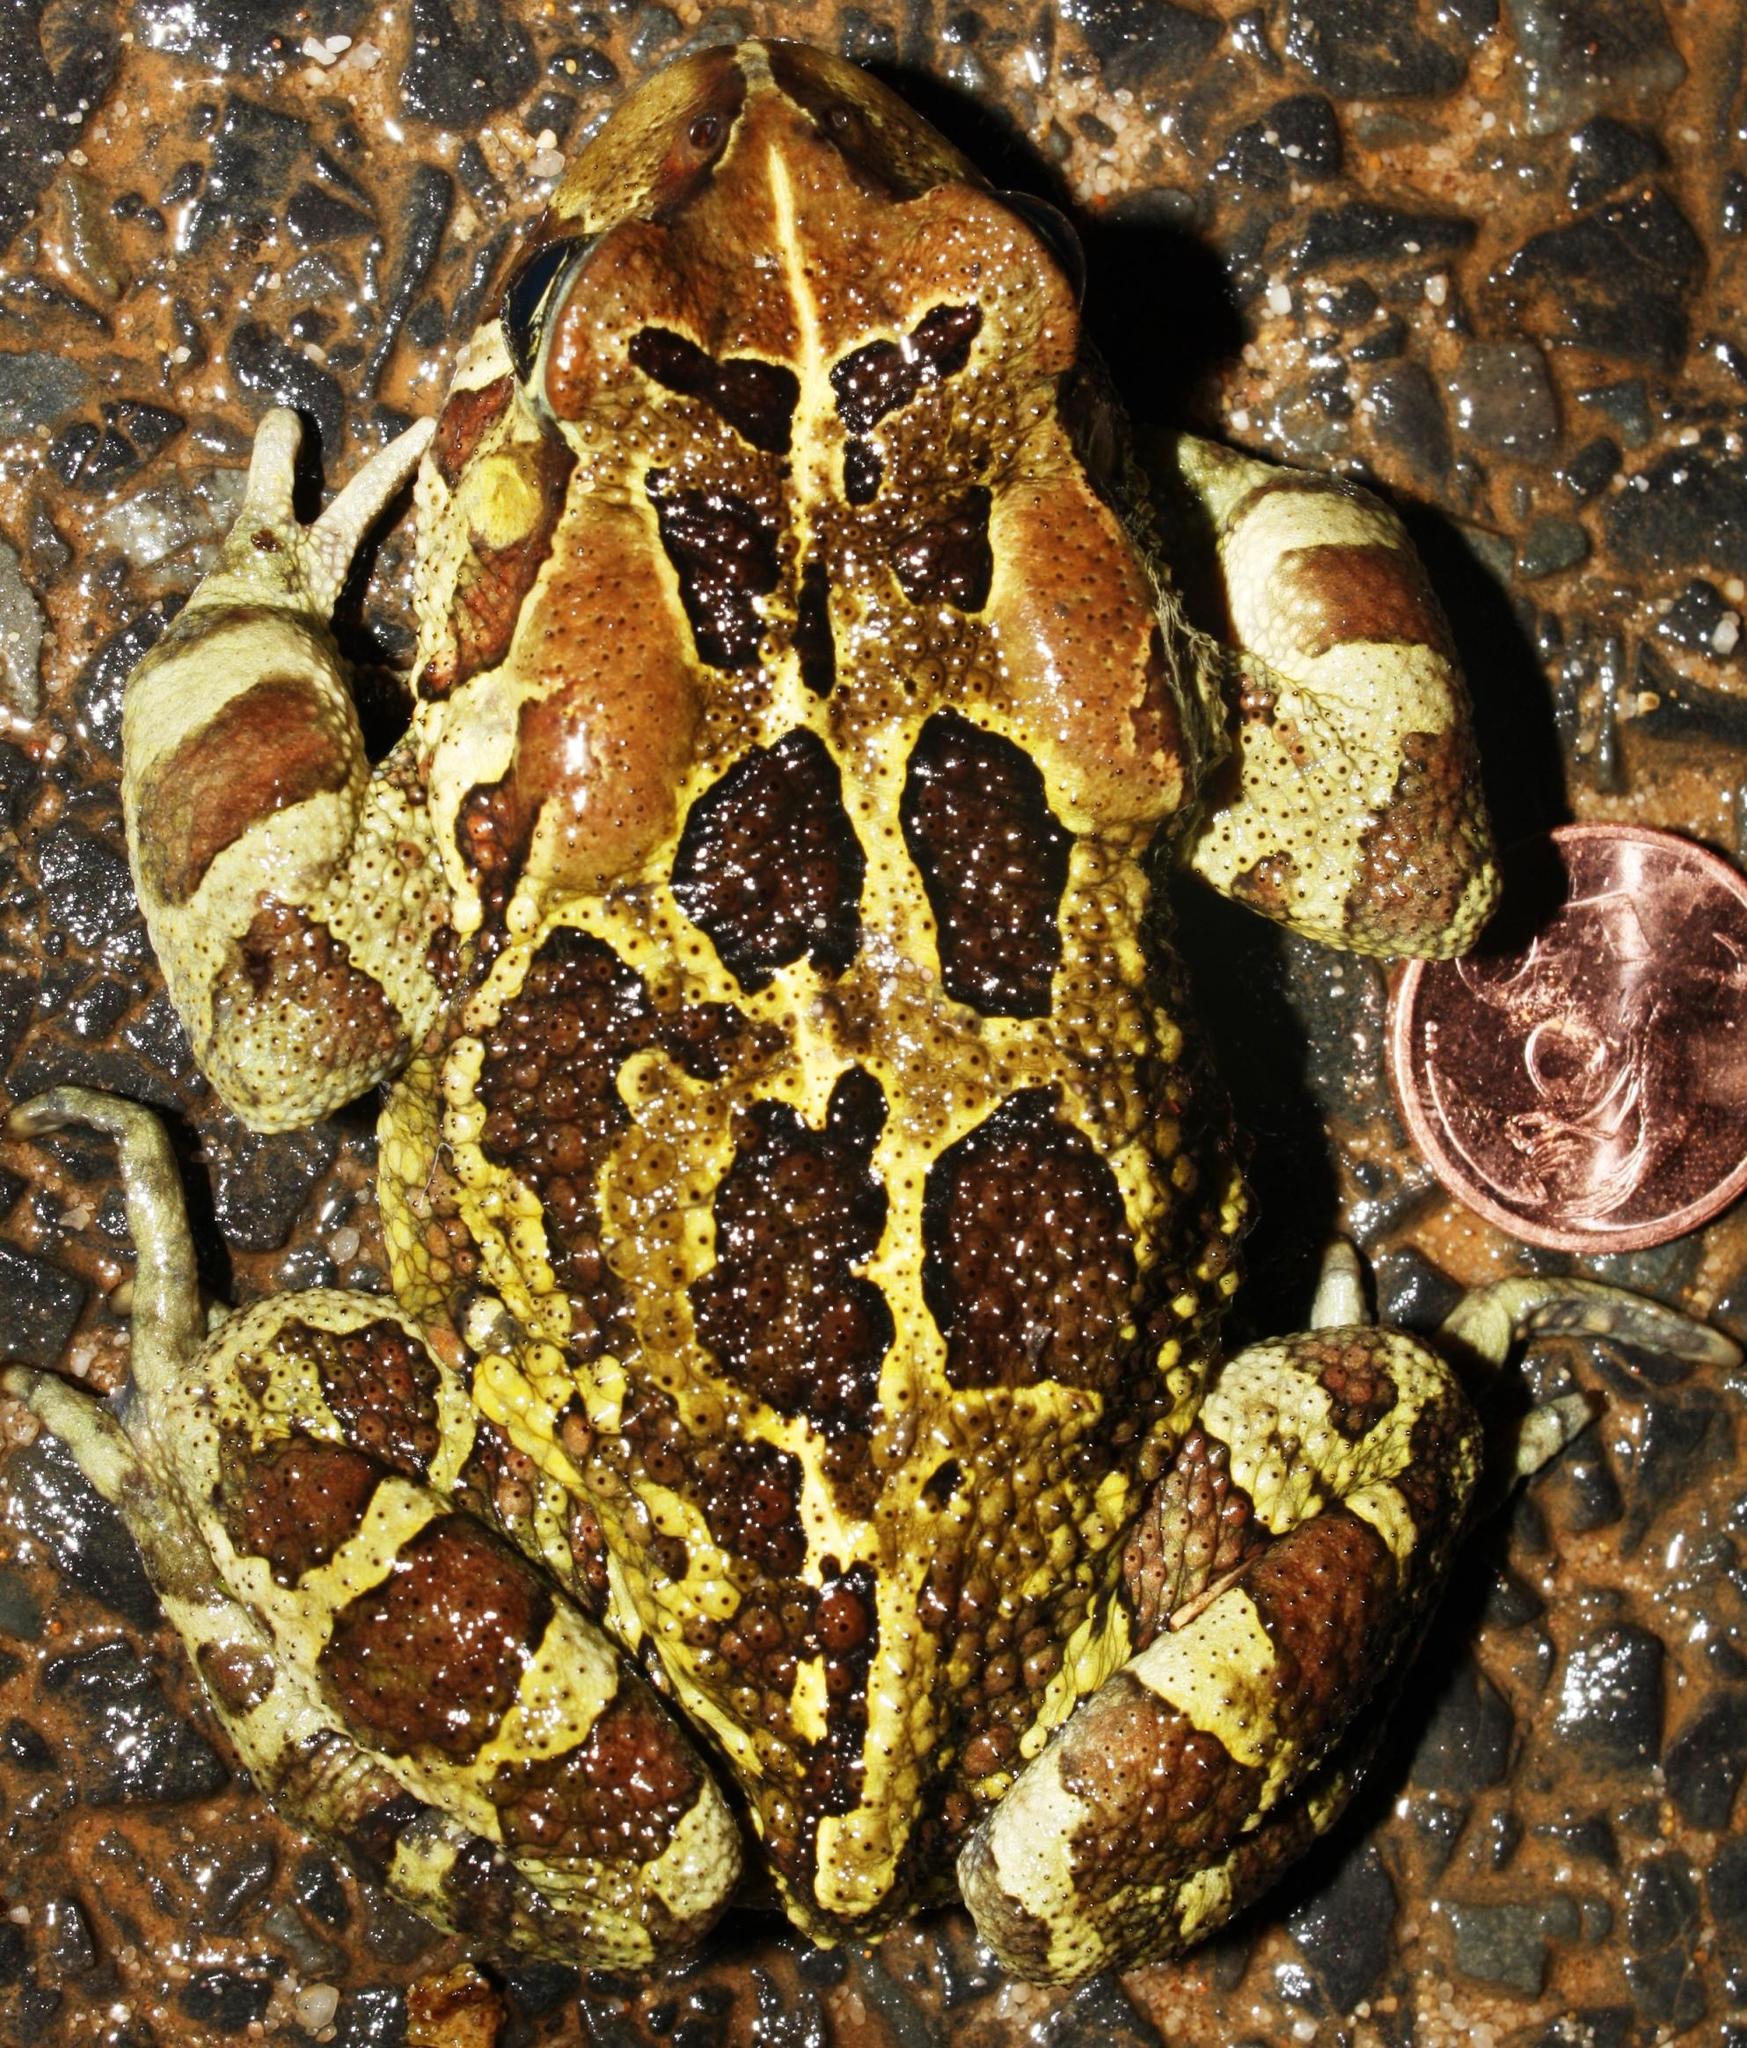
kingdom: Animalia
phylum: Chordata
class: Amphibia
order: Anura
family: Bufonidae
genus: Sclerophrys
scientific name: Sclerophrys pantherina
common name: Panther toad
